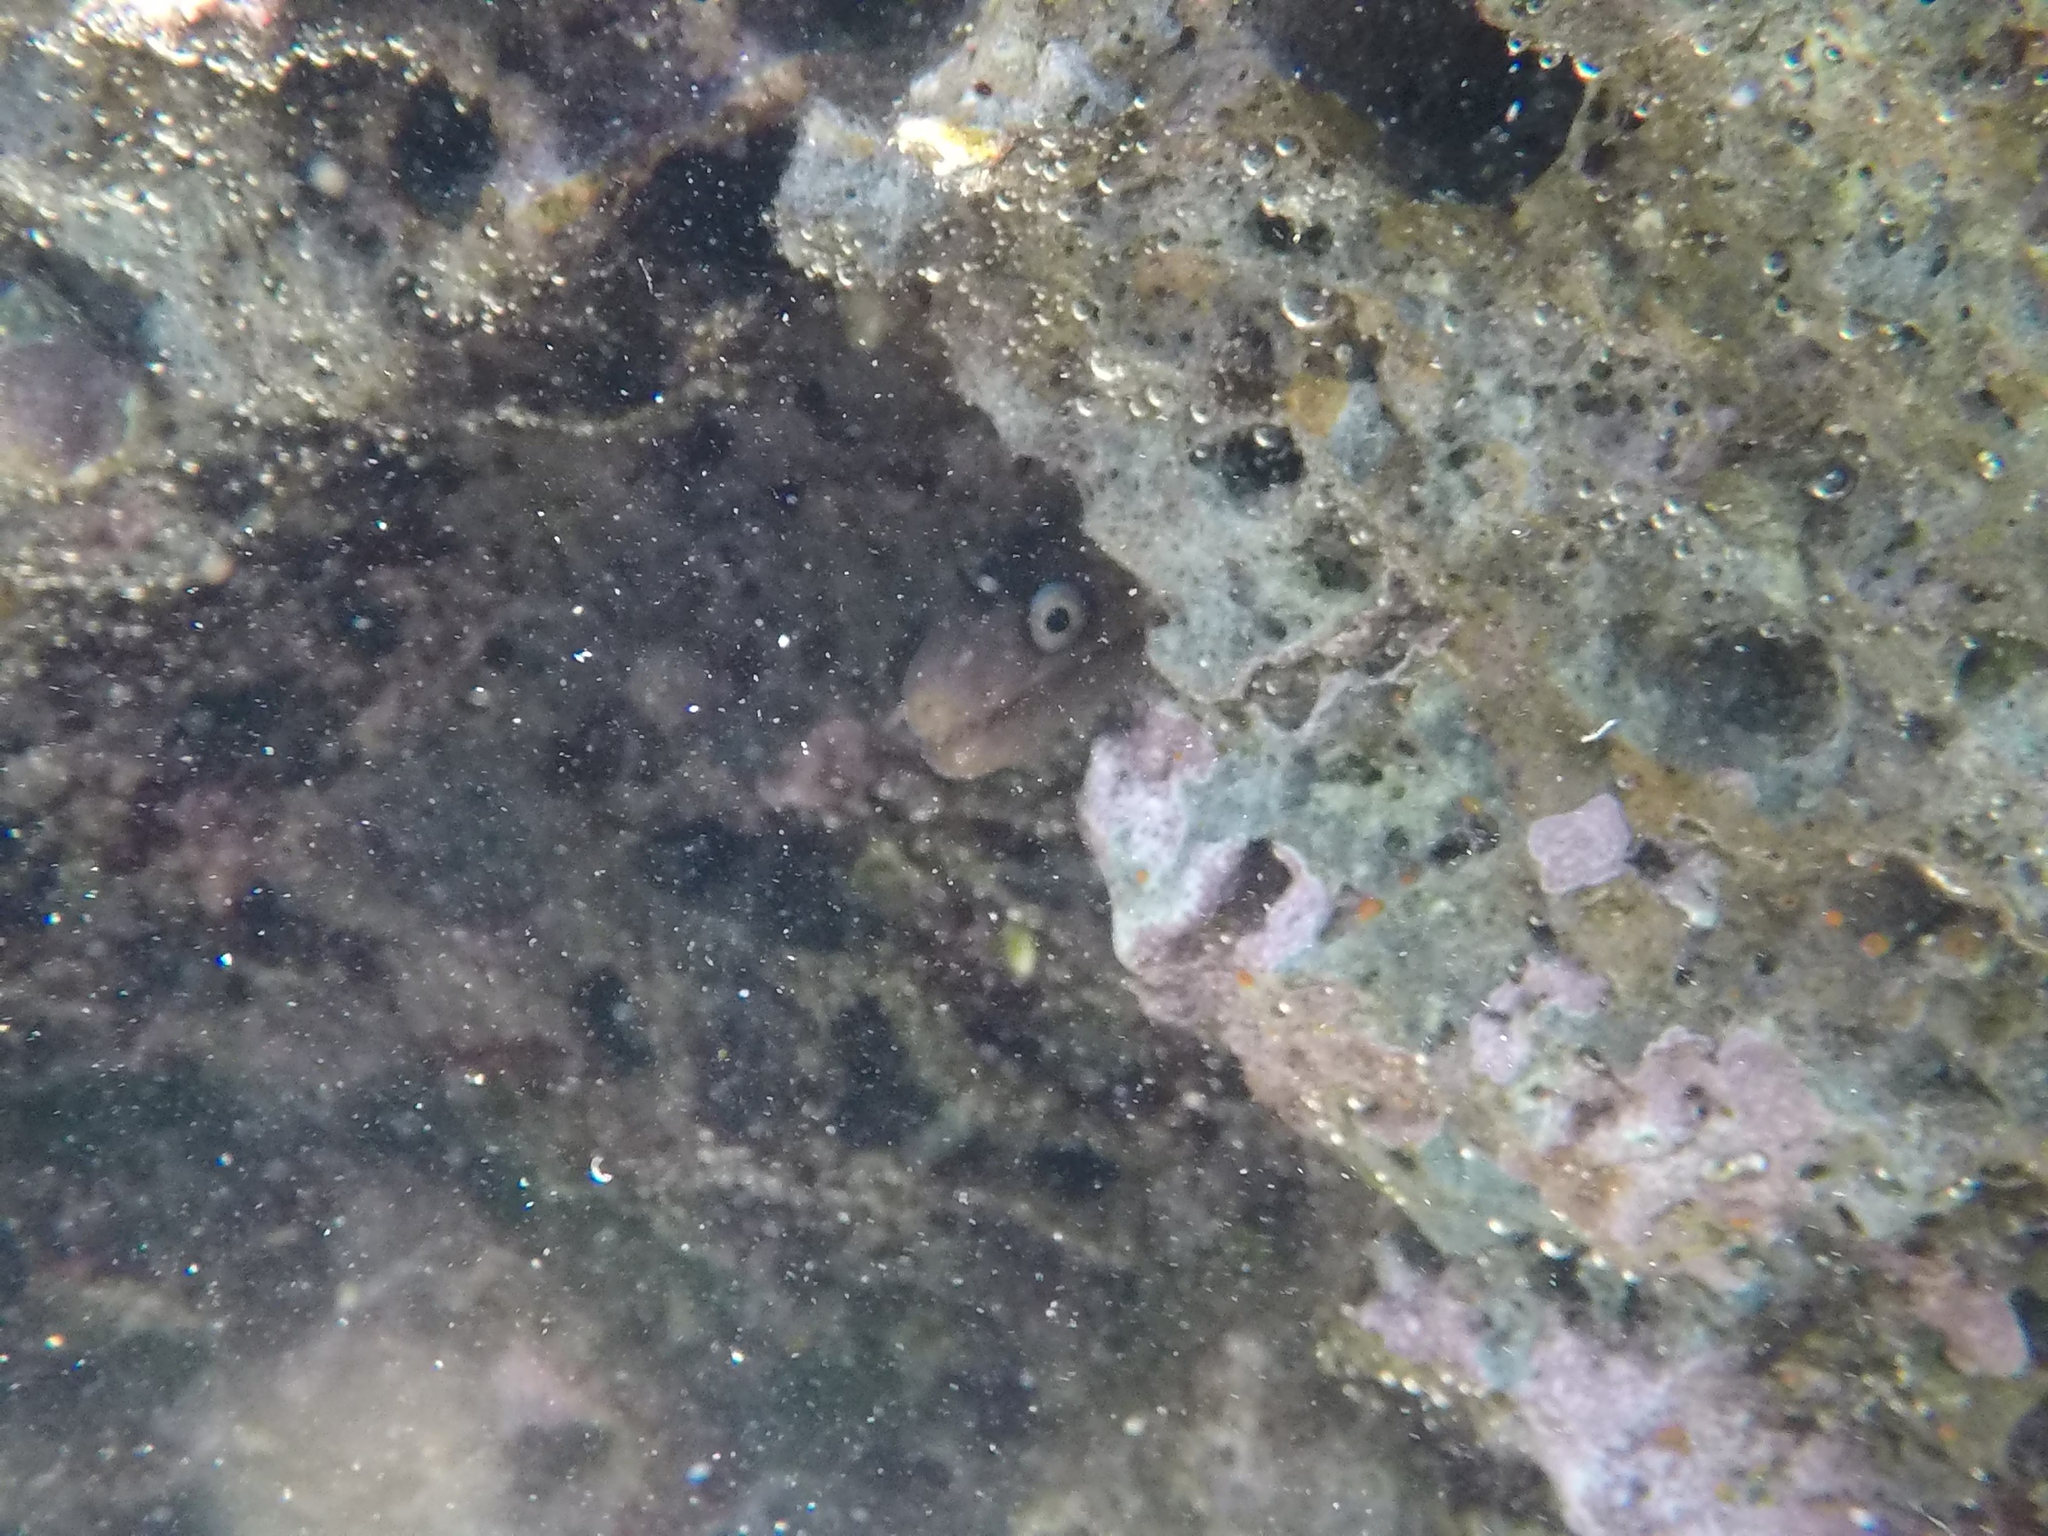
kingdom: Animalia
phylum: Chordata
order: Anguilliformes
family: Muraenidae
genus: Muraena
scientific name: Muraena helena
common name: Mediterranean moray
